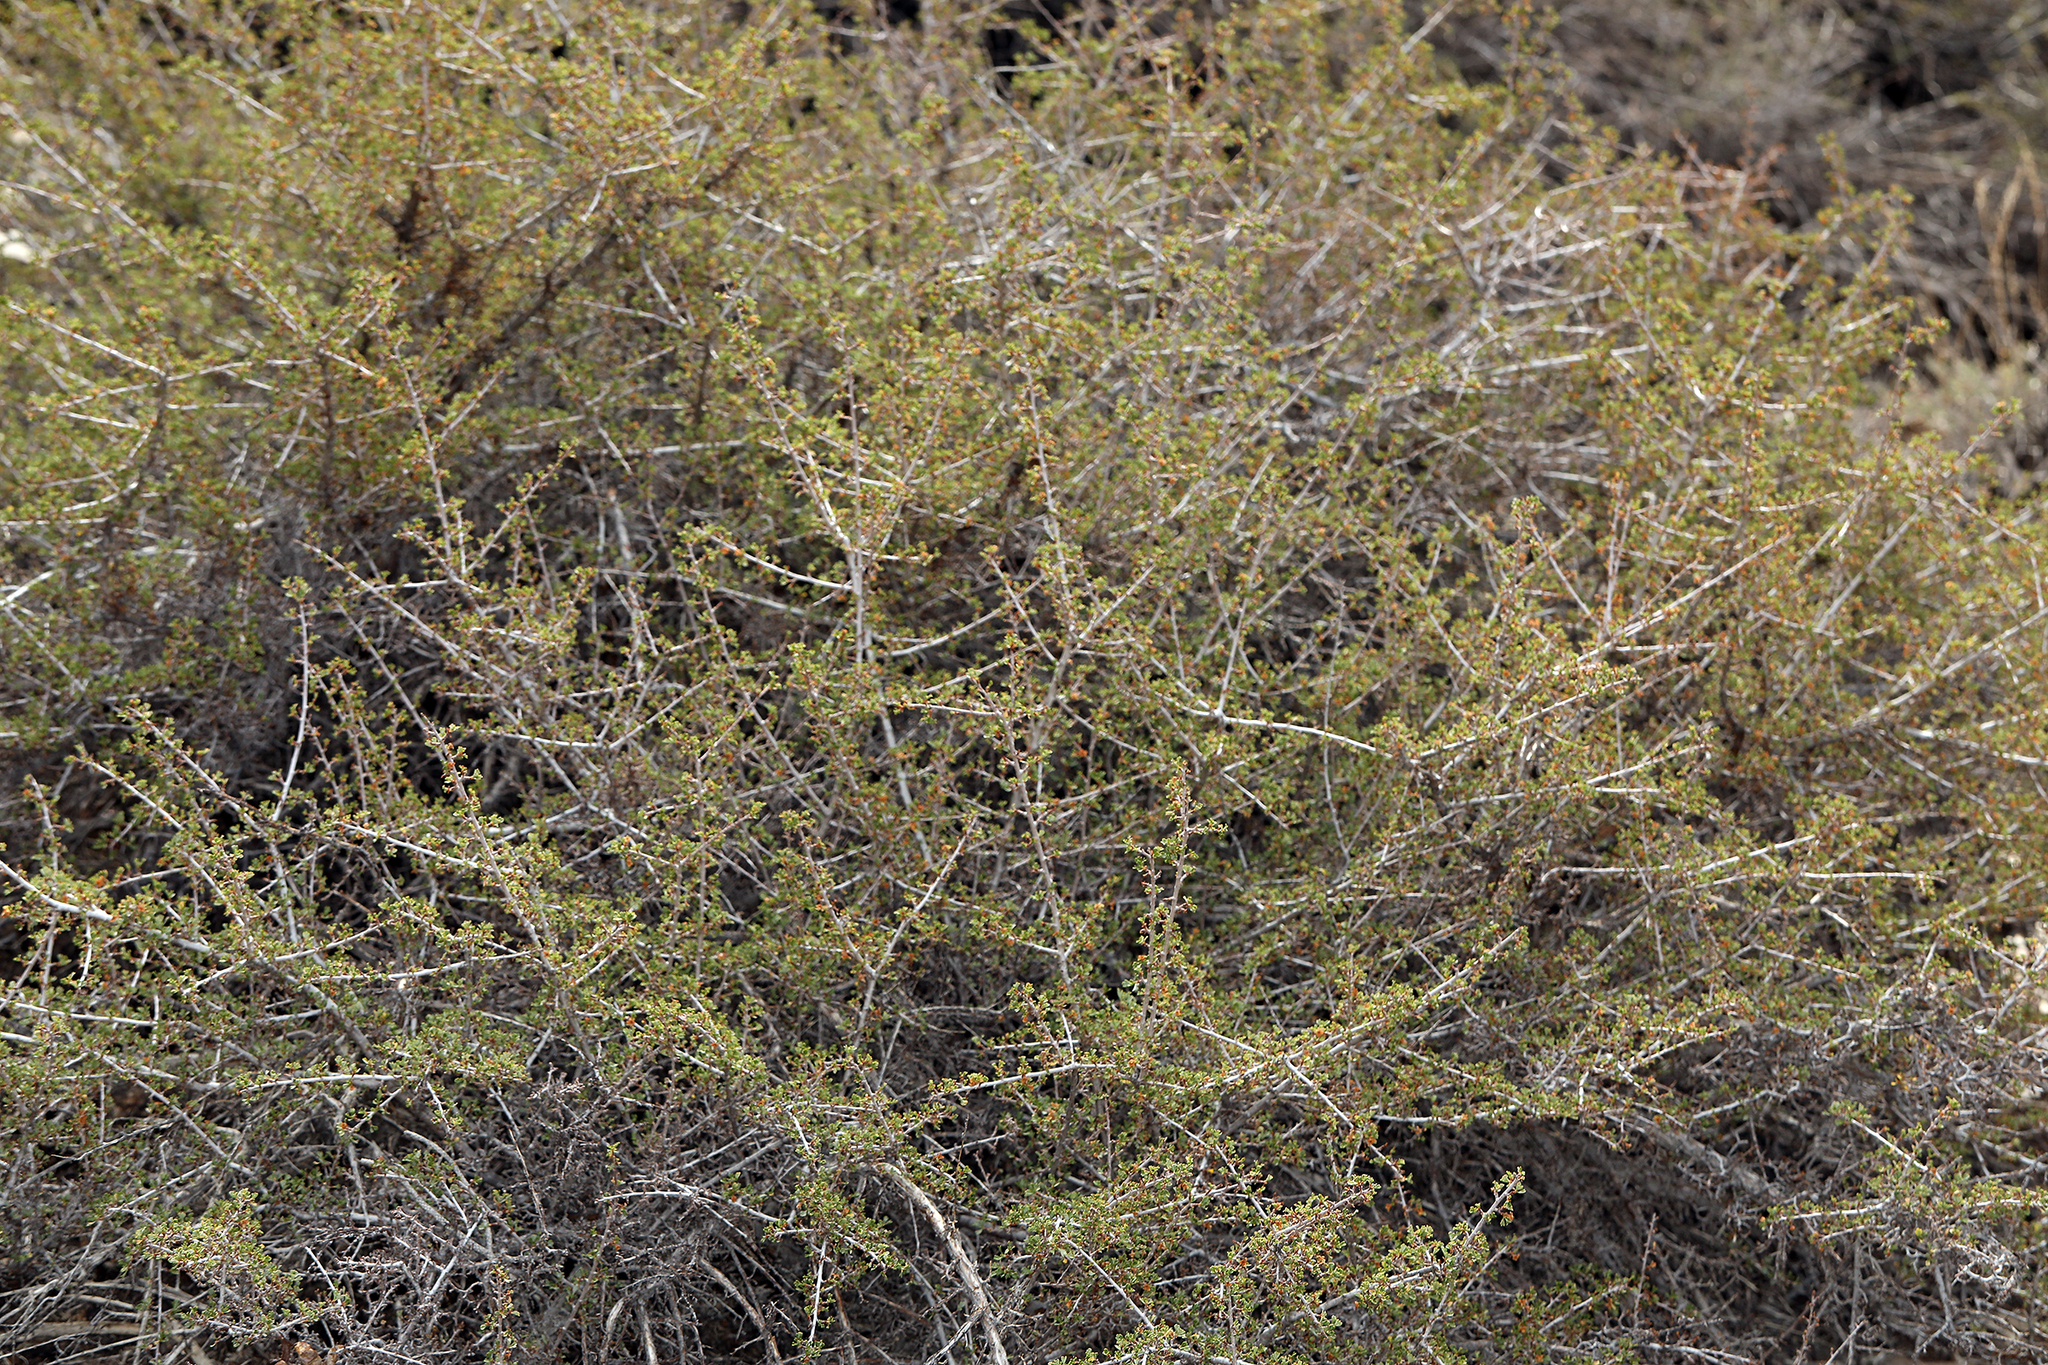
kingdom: Plantae
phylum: Tracheophyta
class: Magnoliopsida
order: Rosales
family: Rosaceae
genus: Purshia
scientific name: Purshia tridentata
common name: Antelope bitterbrush
